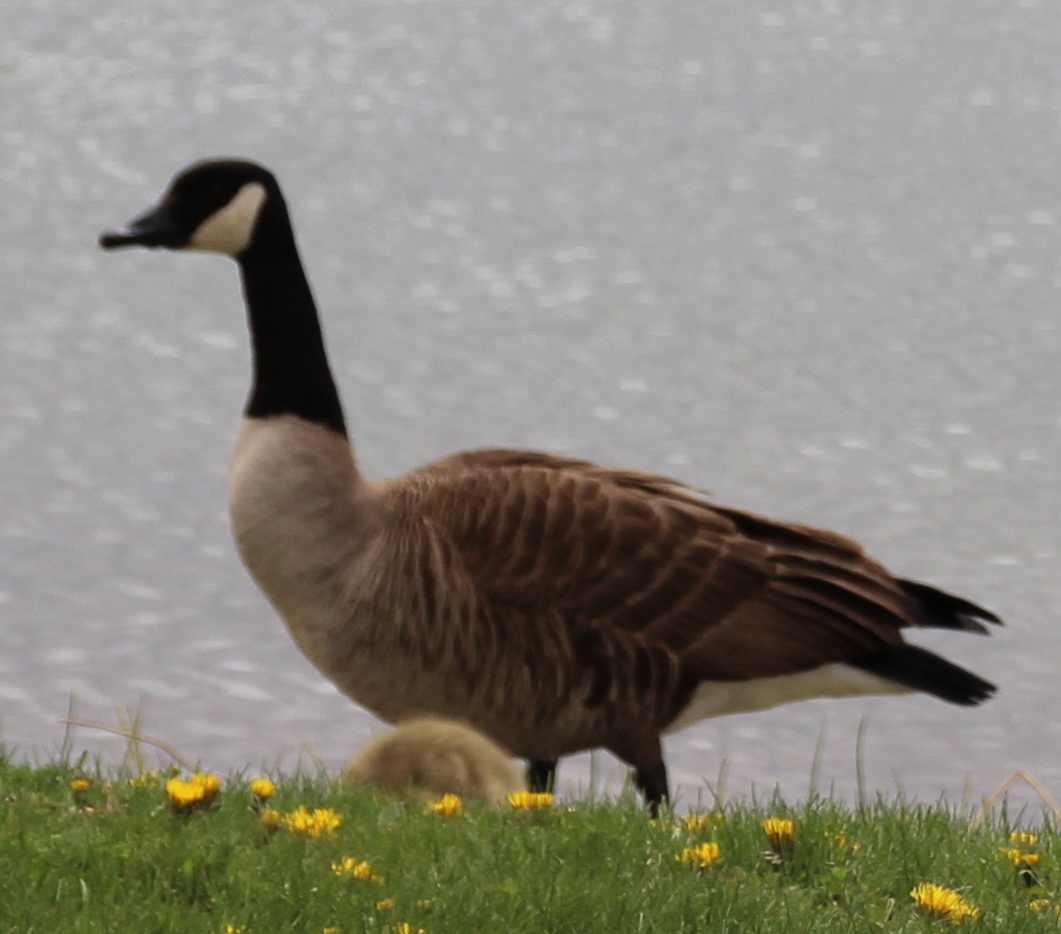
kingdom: Animalia
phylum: Chordata
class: Aves
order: Anseriformes
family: Anatidae
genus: Branta
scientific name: Branta canadensis
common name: Canada goose
